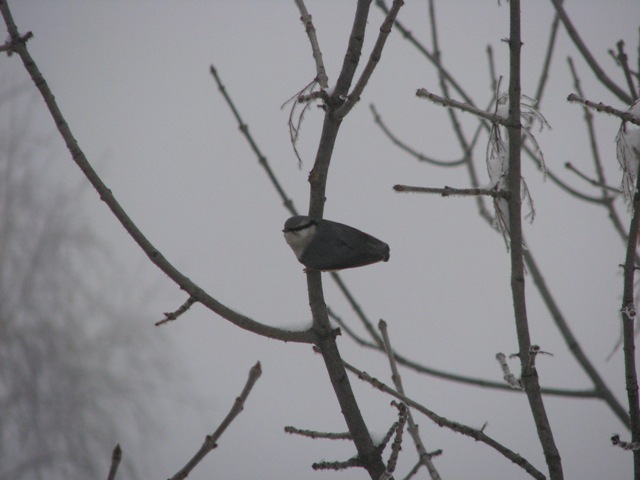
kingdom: Animalia
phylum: Chordata
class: Aves
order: Passeriformes
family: Sittidae
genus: Sitta
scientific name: Sitta europaea
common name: Eurasian nuthatch
